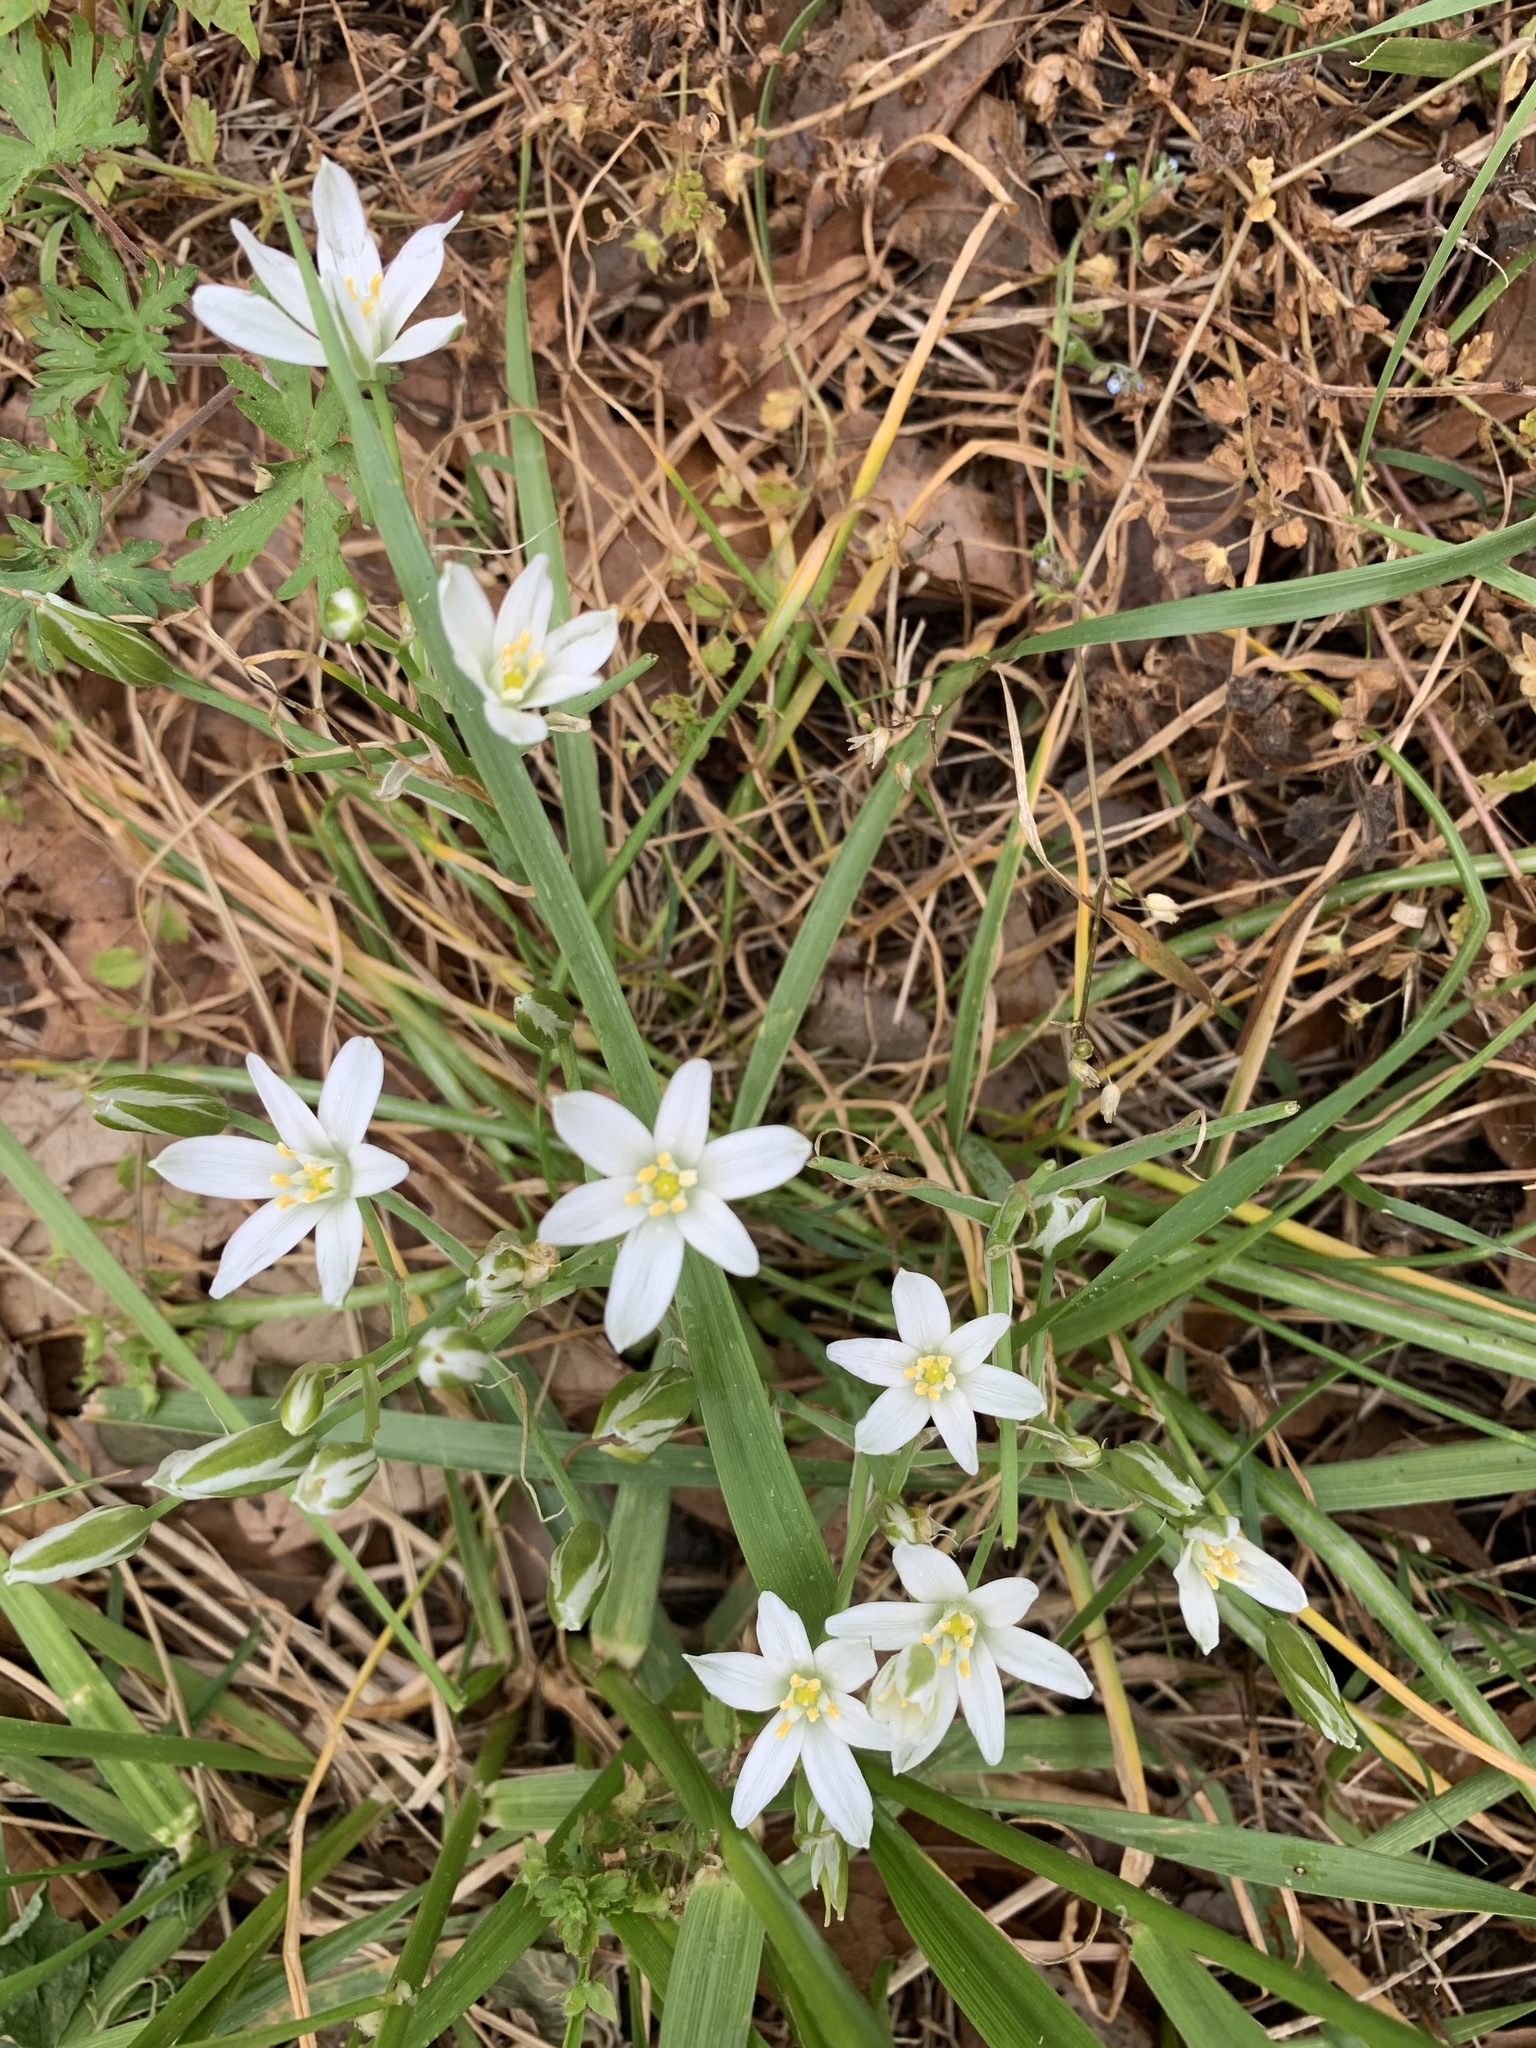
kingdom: Plantae
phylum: Tracheophyta
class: Liliopsida
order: Asparagales
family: Asparagaceae
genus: Ornithogalum
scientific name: Ornithogalum umbellatum
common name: Garden star-of-bethlehem
